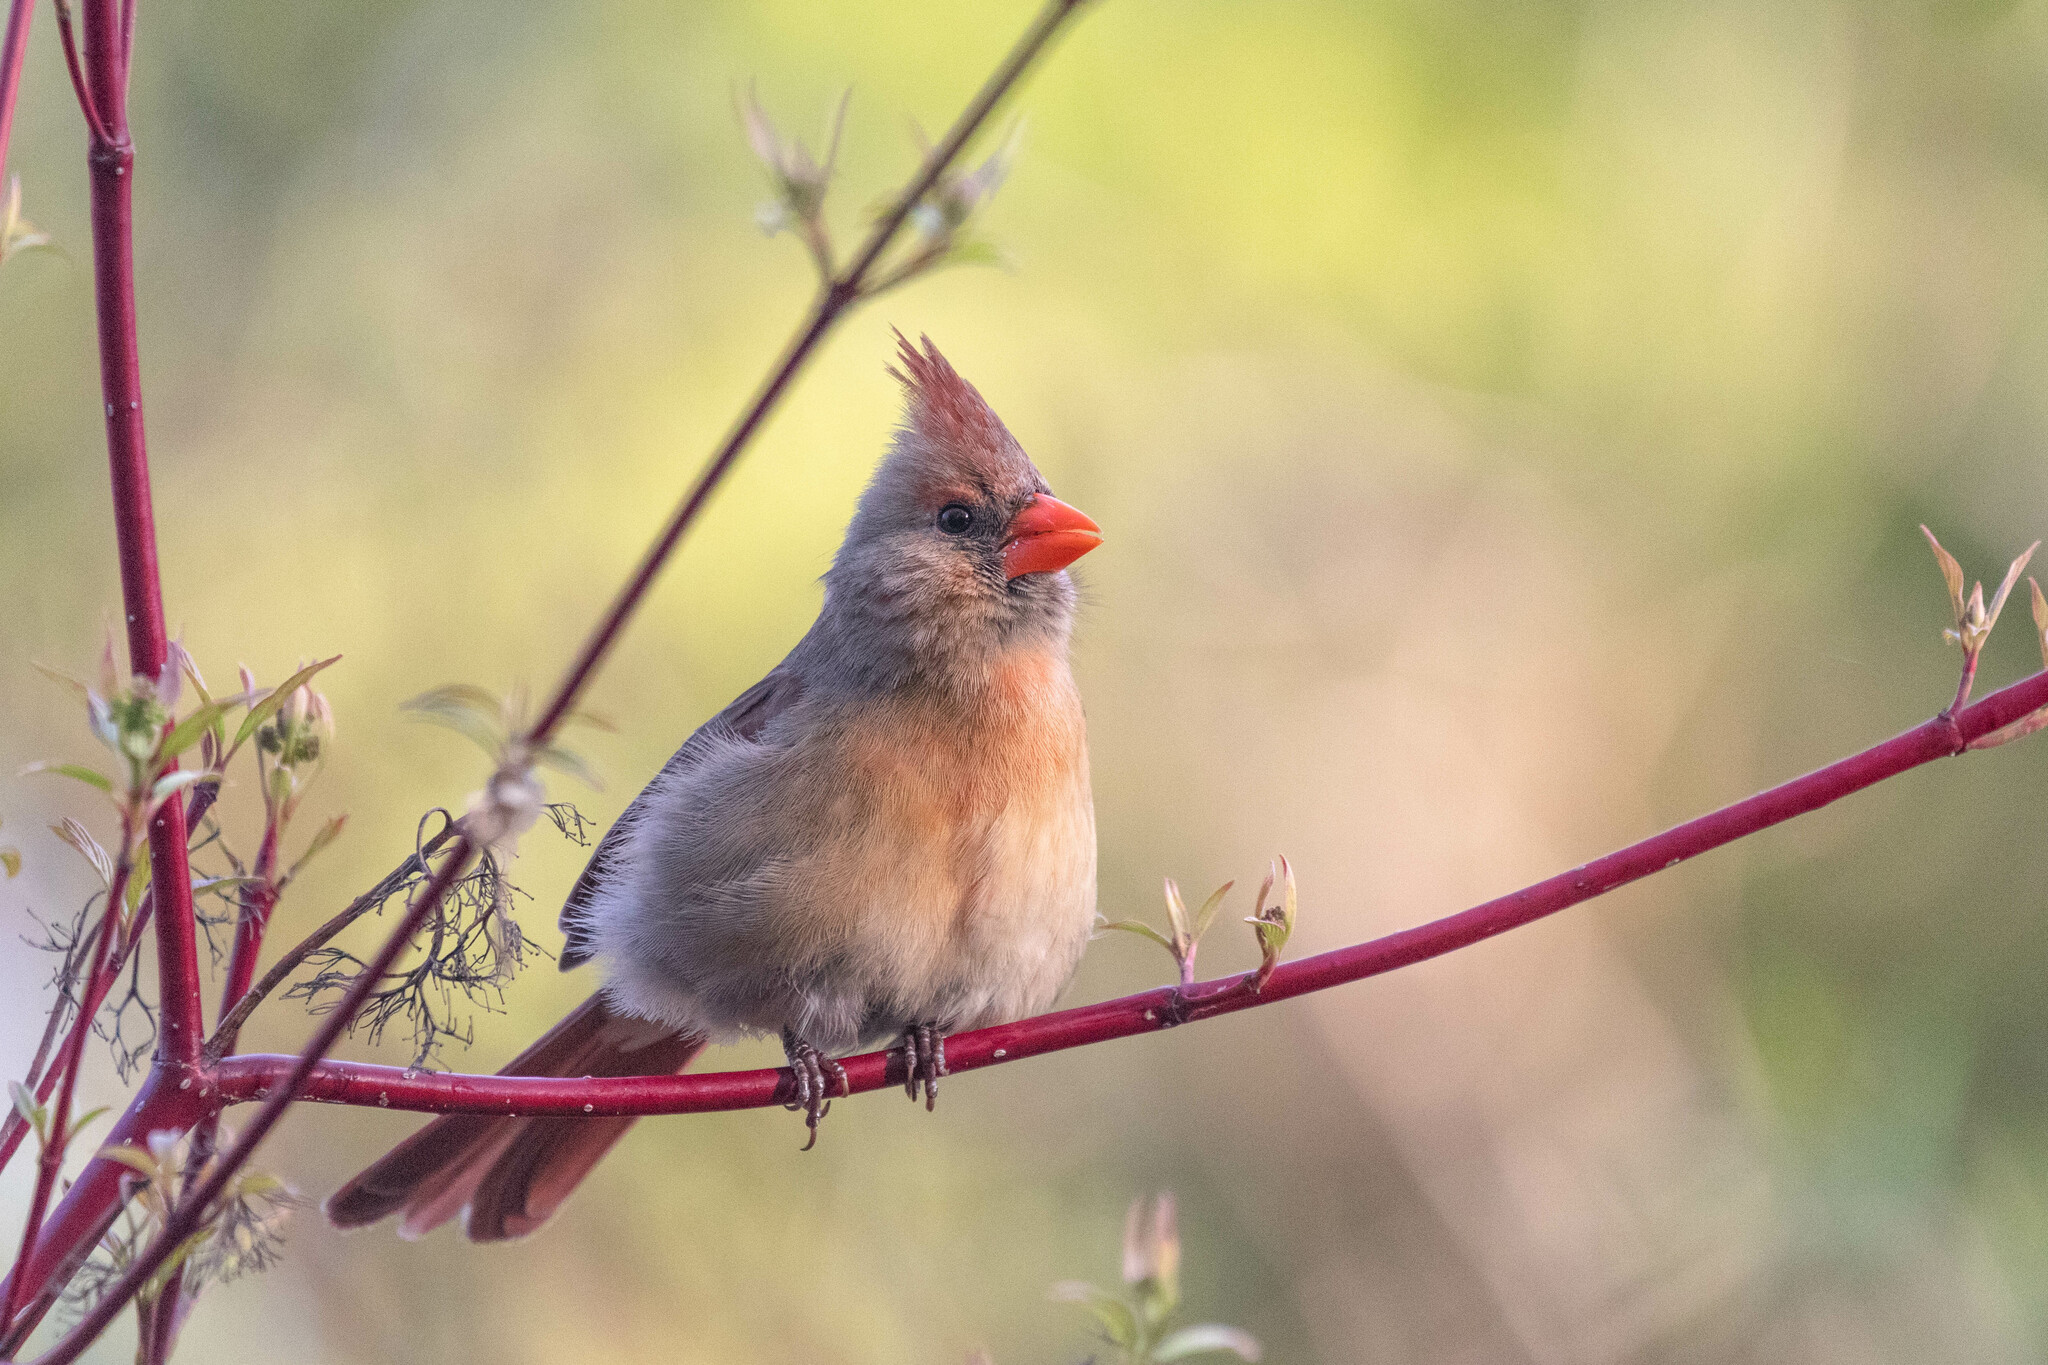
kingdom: Animalia
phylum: Chordata
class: Aves
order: Passeriformes
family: Cardinalidae
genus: Cardinalis
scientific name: Cardinalis cardinalis
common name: Northern cardinal
